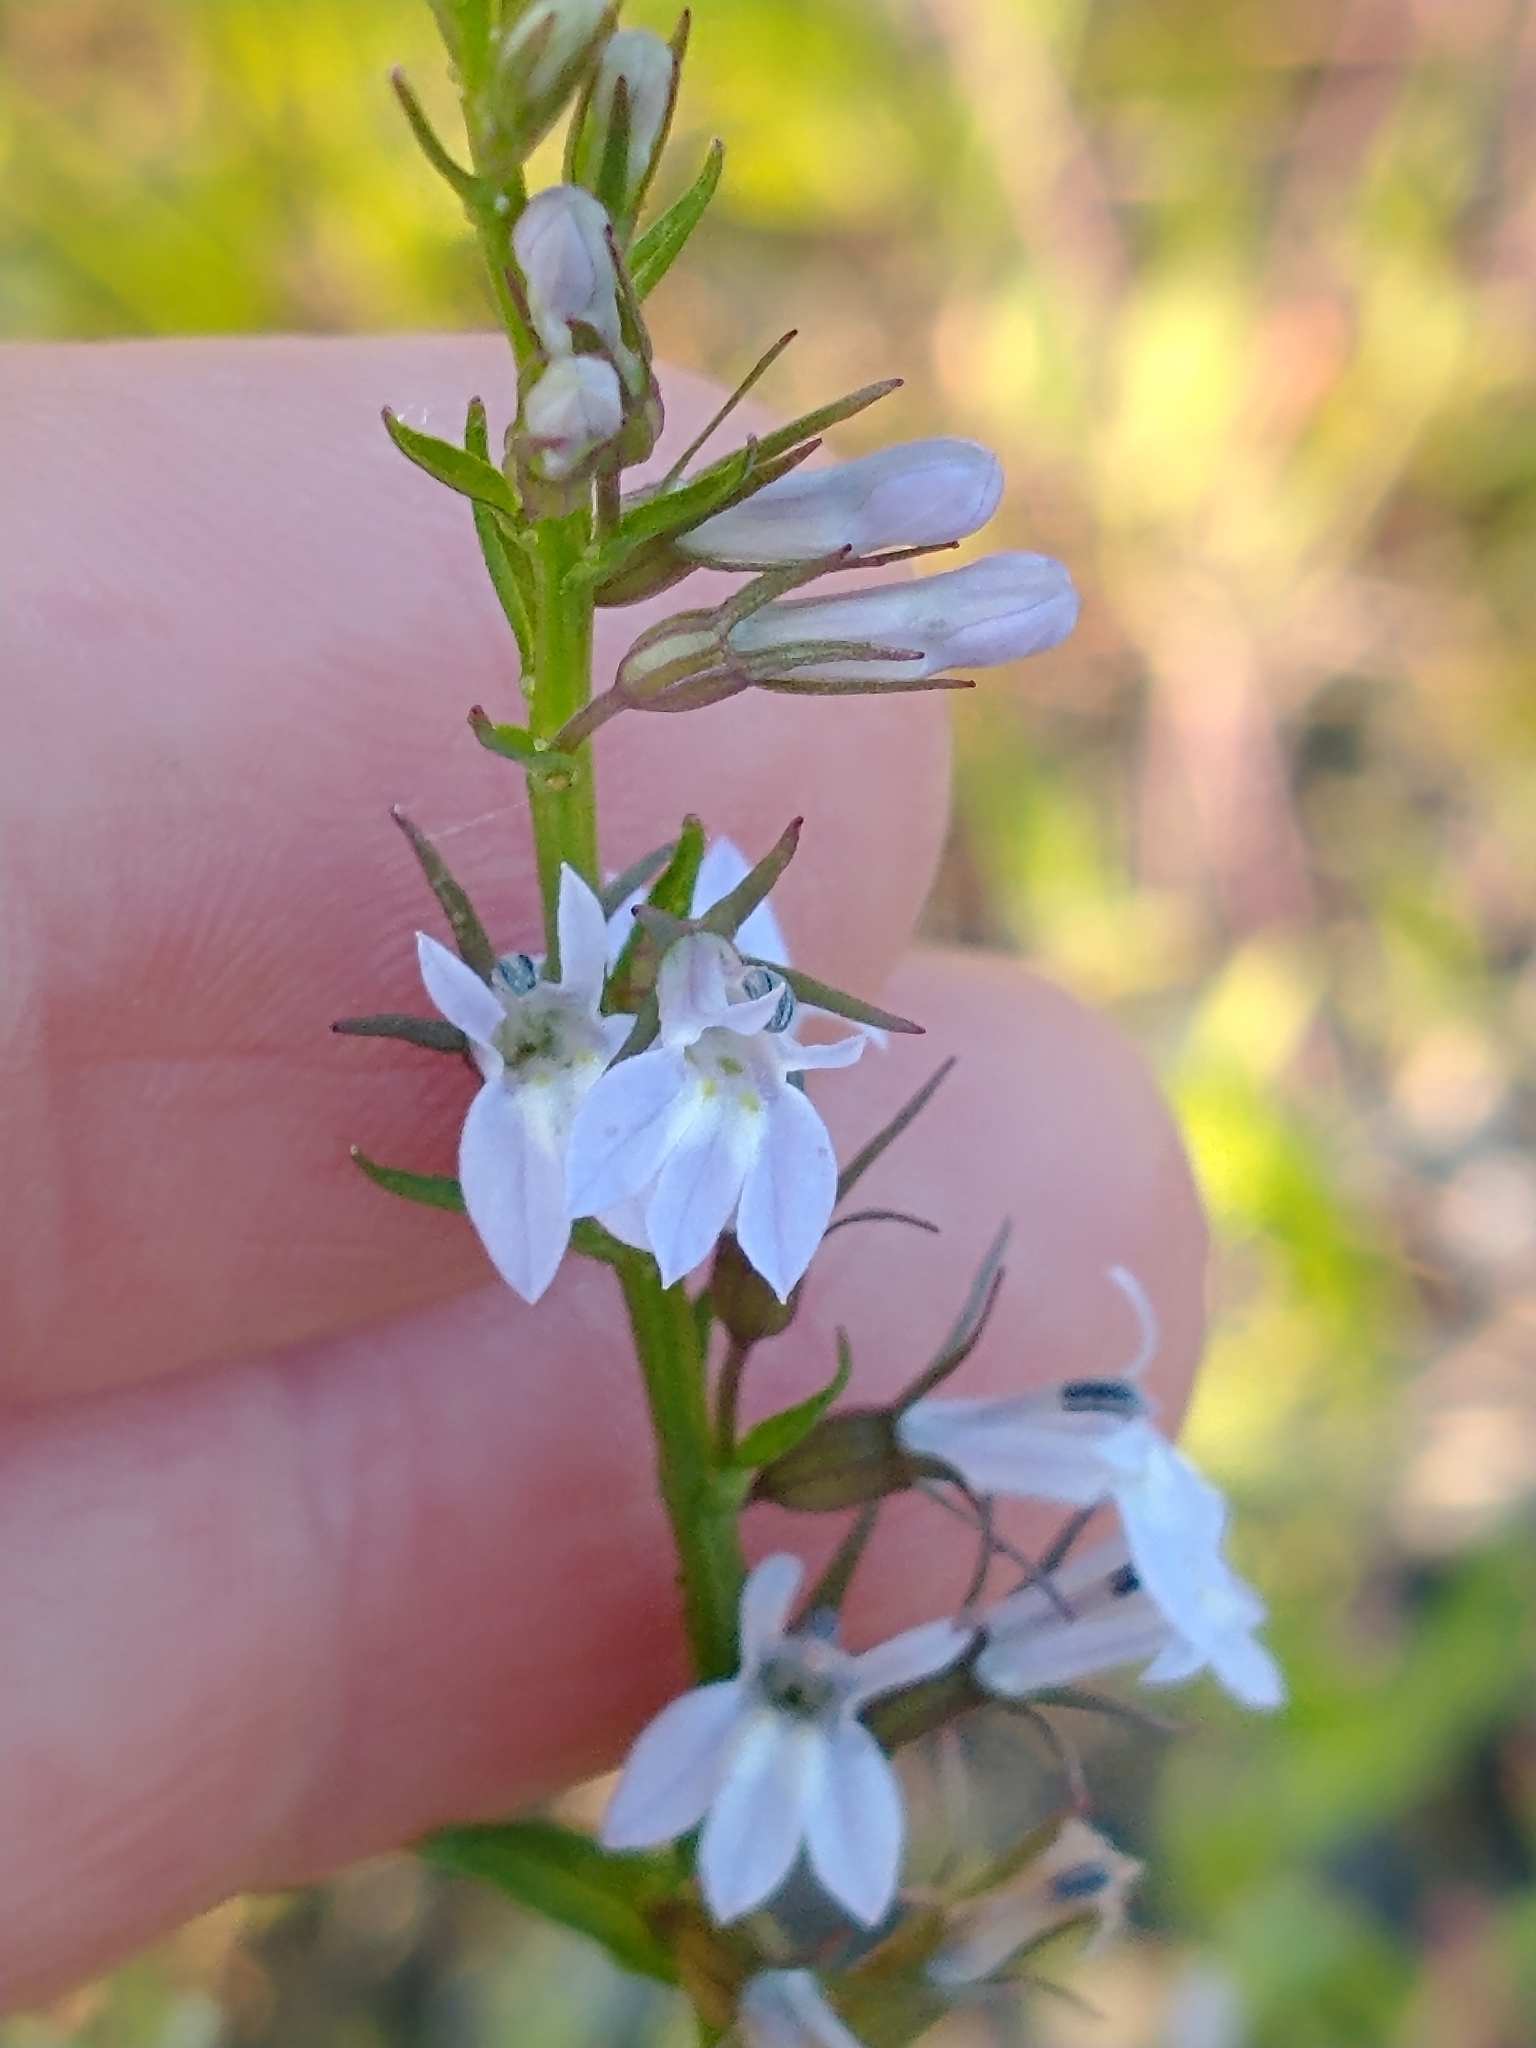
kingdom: Plantae
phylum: Tracheophyta
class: Magnoliopsida
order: Asterales
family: Campanulaceae
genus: Lobelia
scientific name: Lobelia inflata
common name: Indian tobacco
